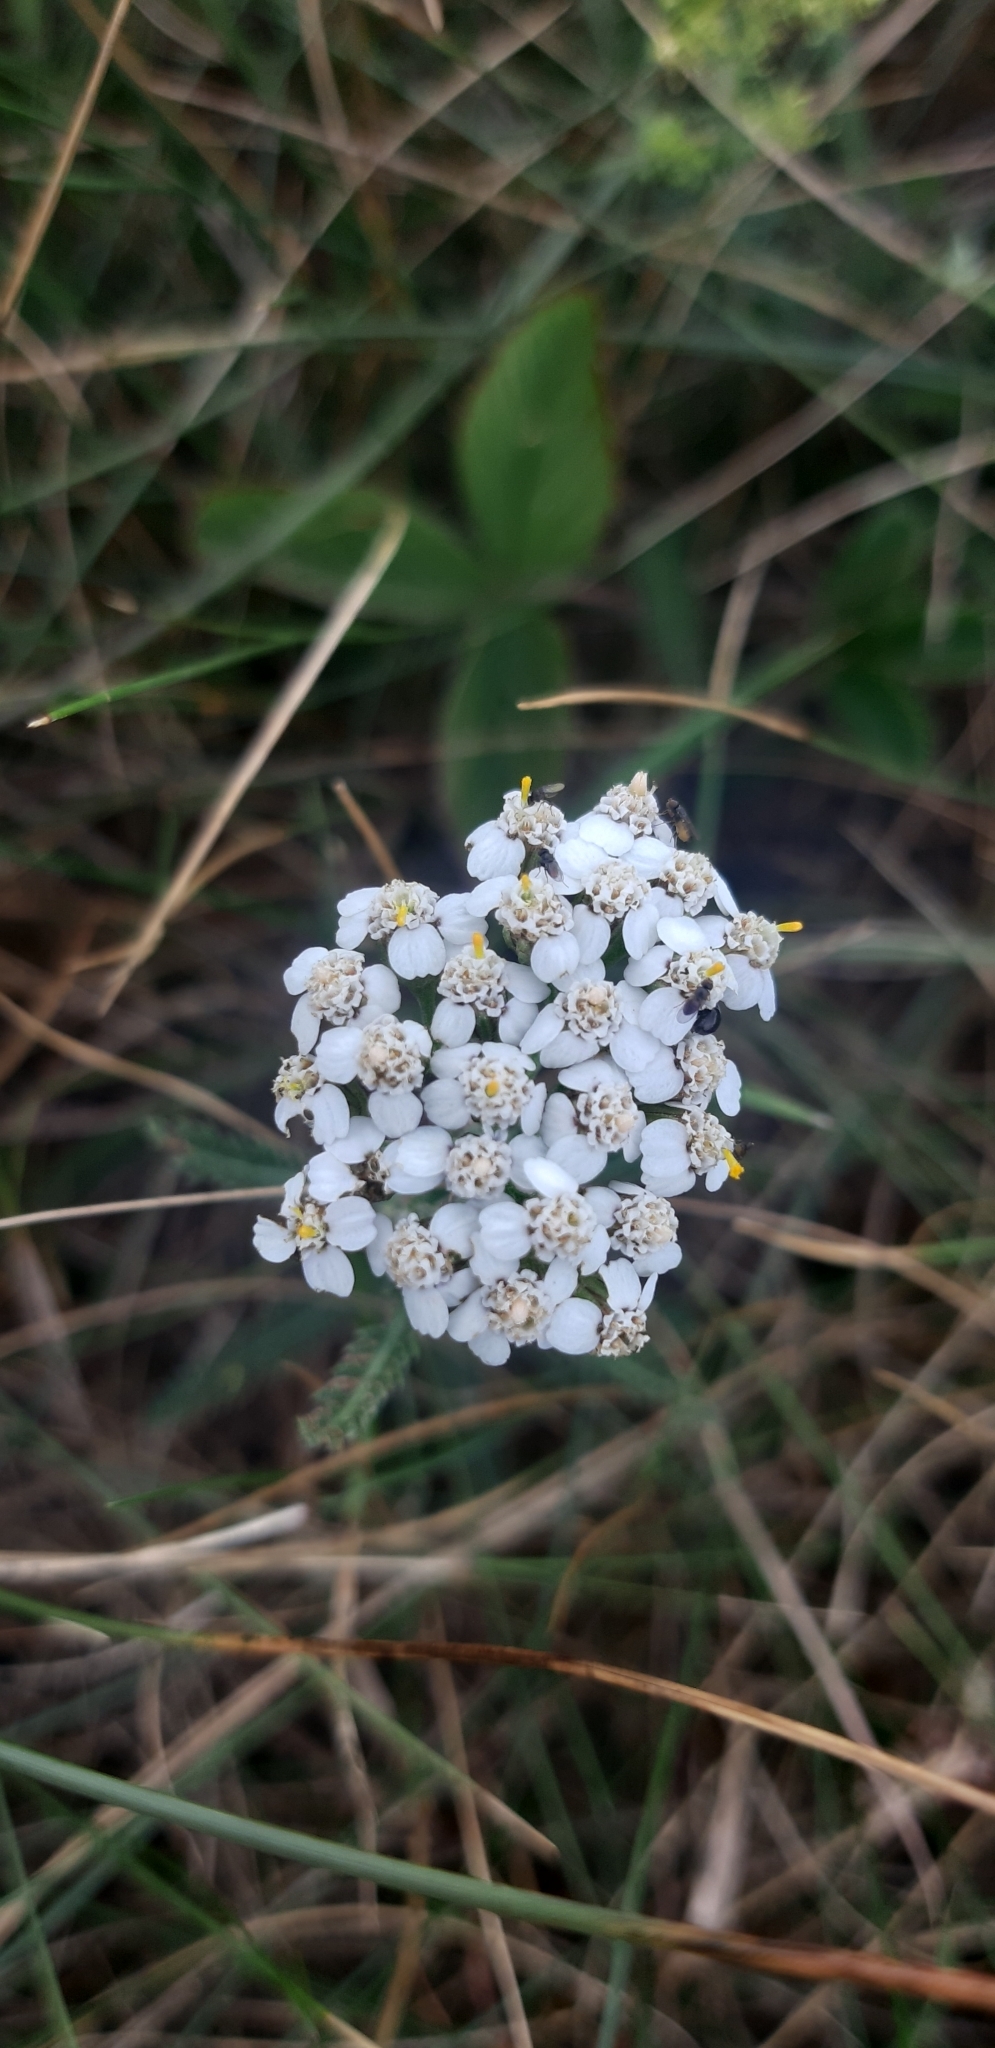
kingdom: Plantae
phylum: Tracheophyta
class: Magnoliopsida
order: Asterales
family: Asteraceae
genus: Achillea
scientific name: Achillea millefolium
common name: Yarrow
